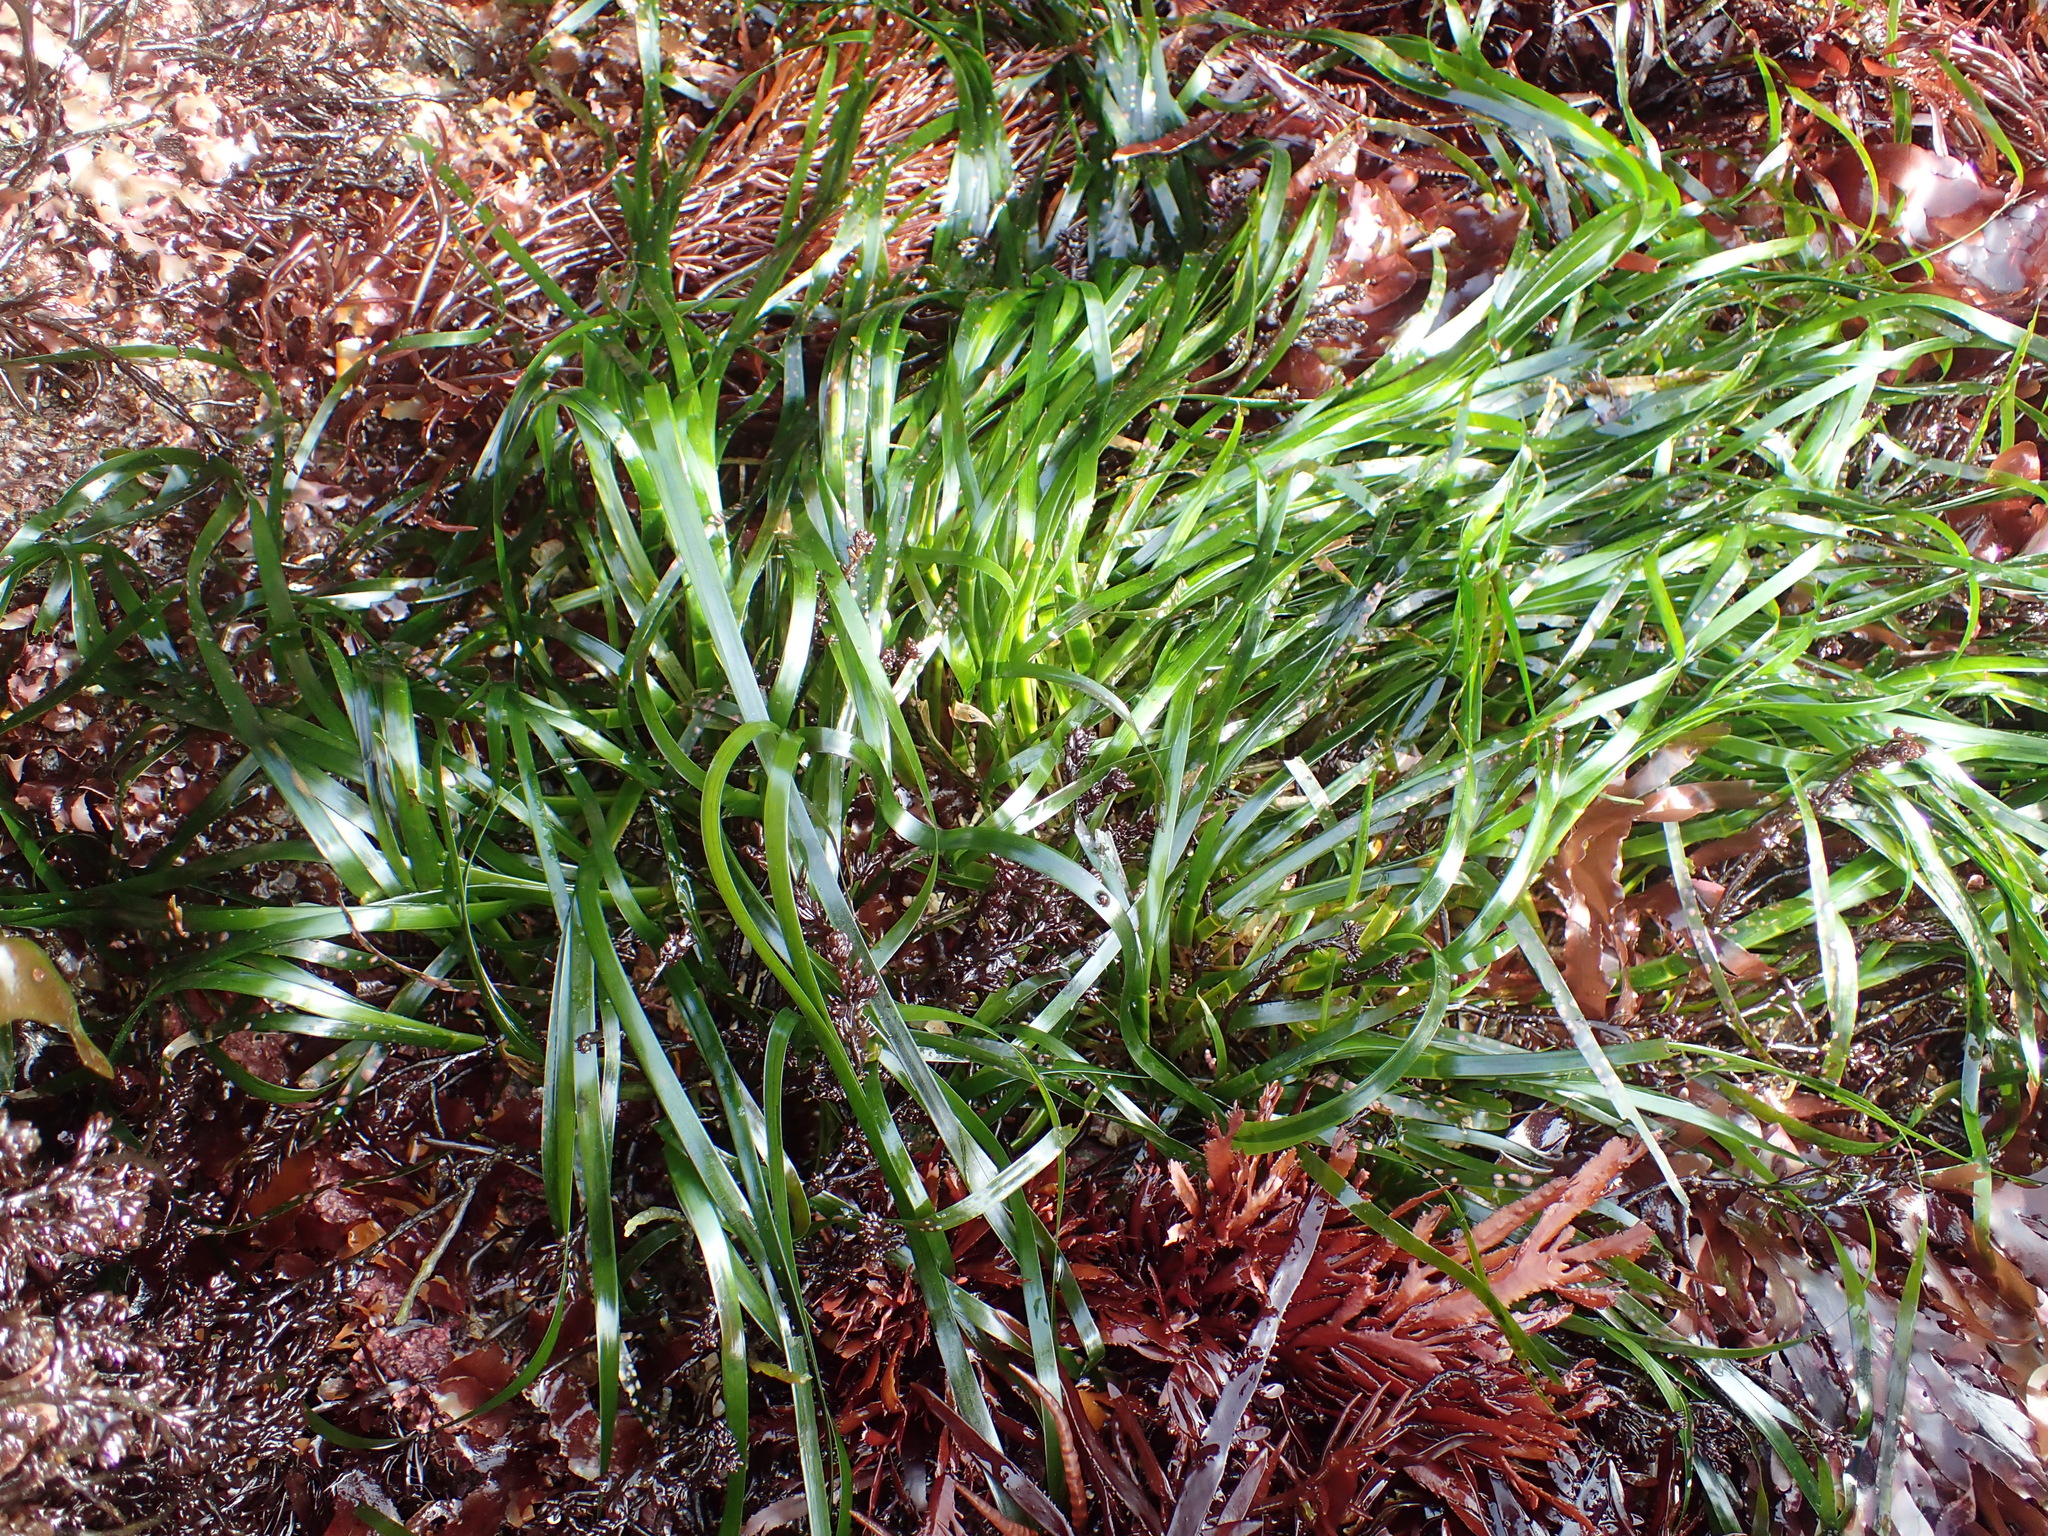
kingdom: Plantae
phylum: Tracheophyta
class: Liliopsida
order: Alismatales
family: Zosteraceae
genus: Phyllospadix
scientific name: Phyllospadix scouleri
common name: Species code: ps
